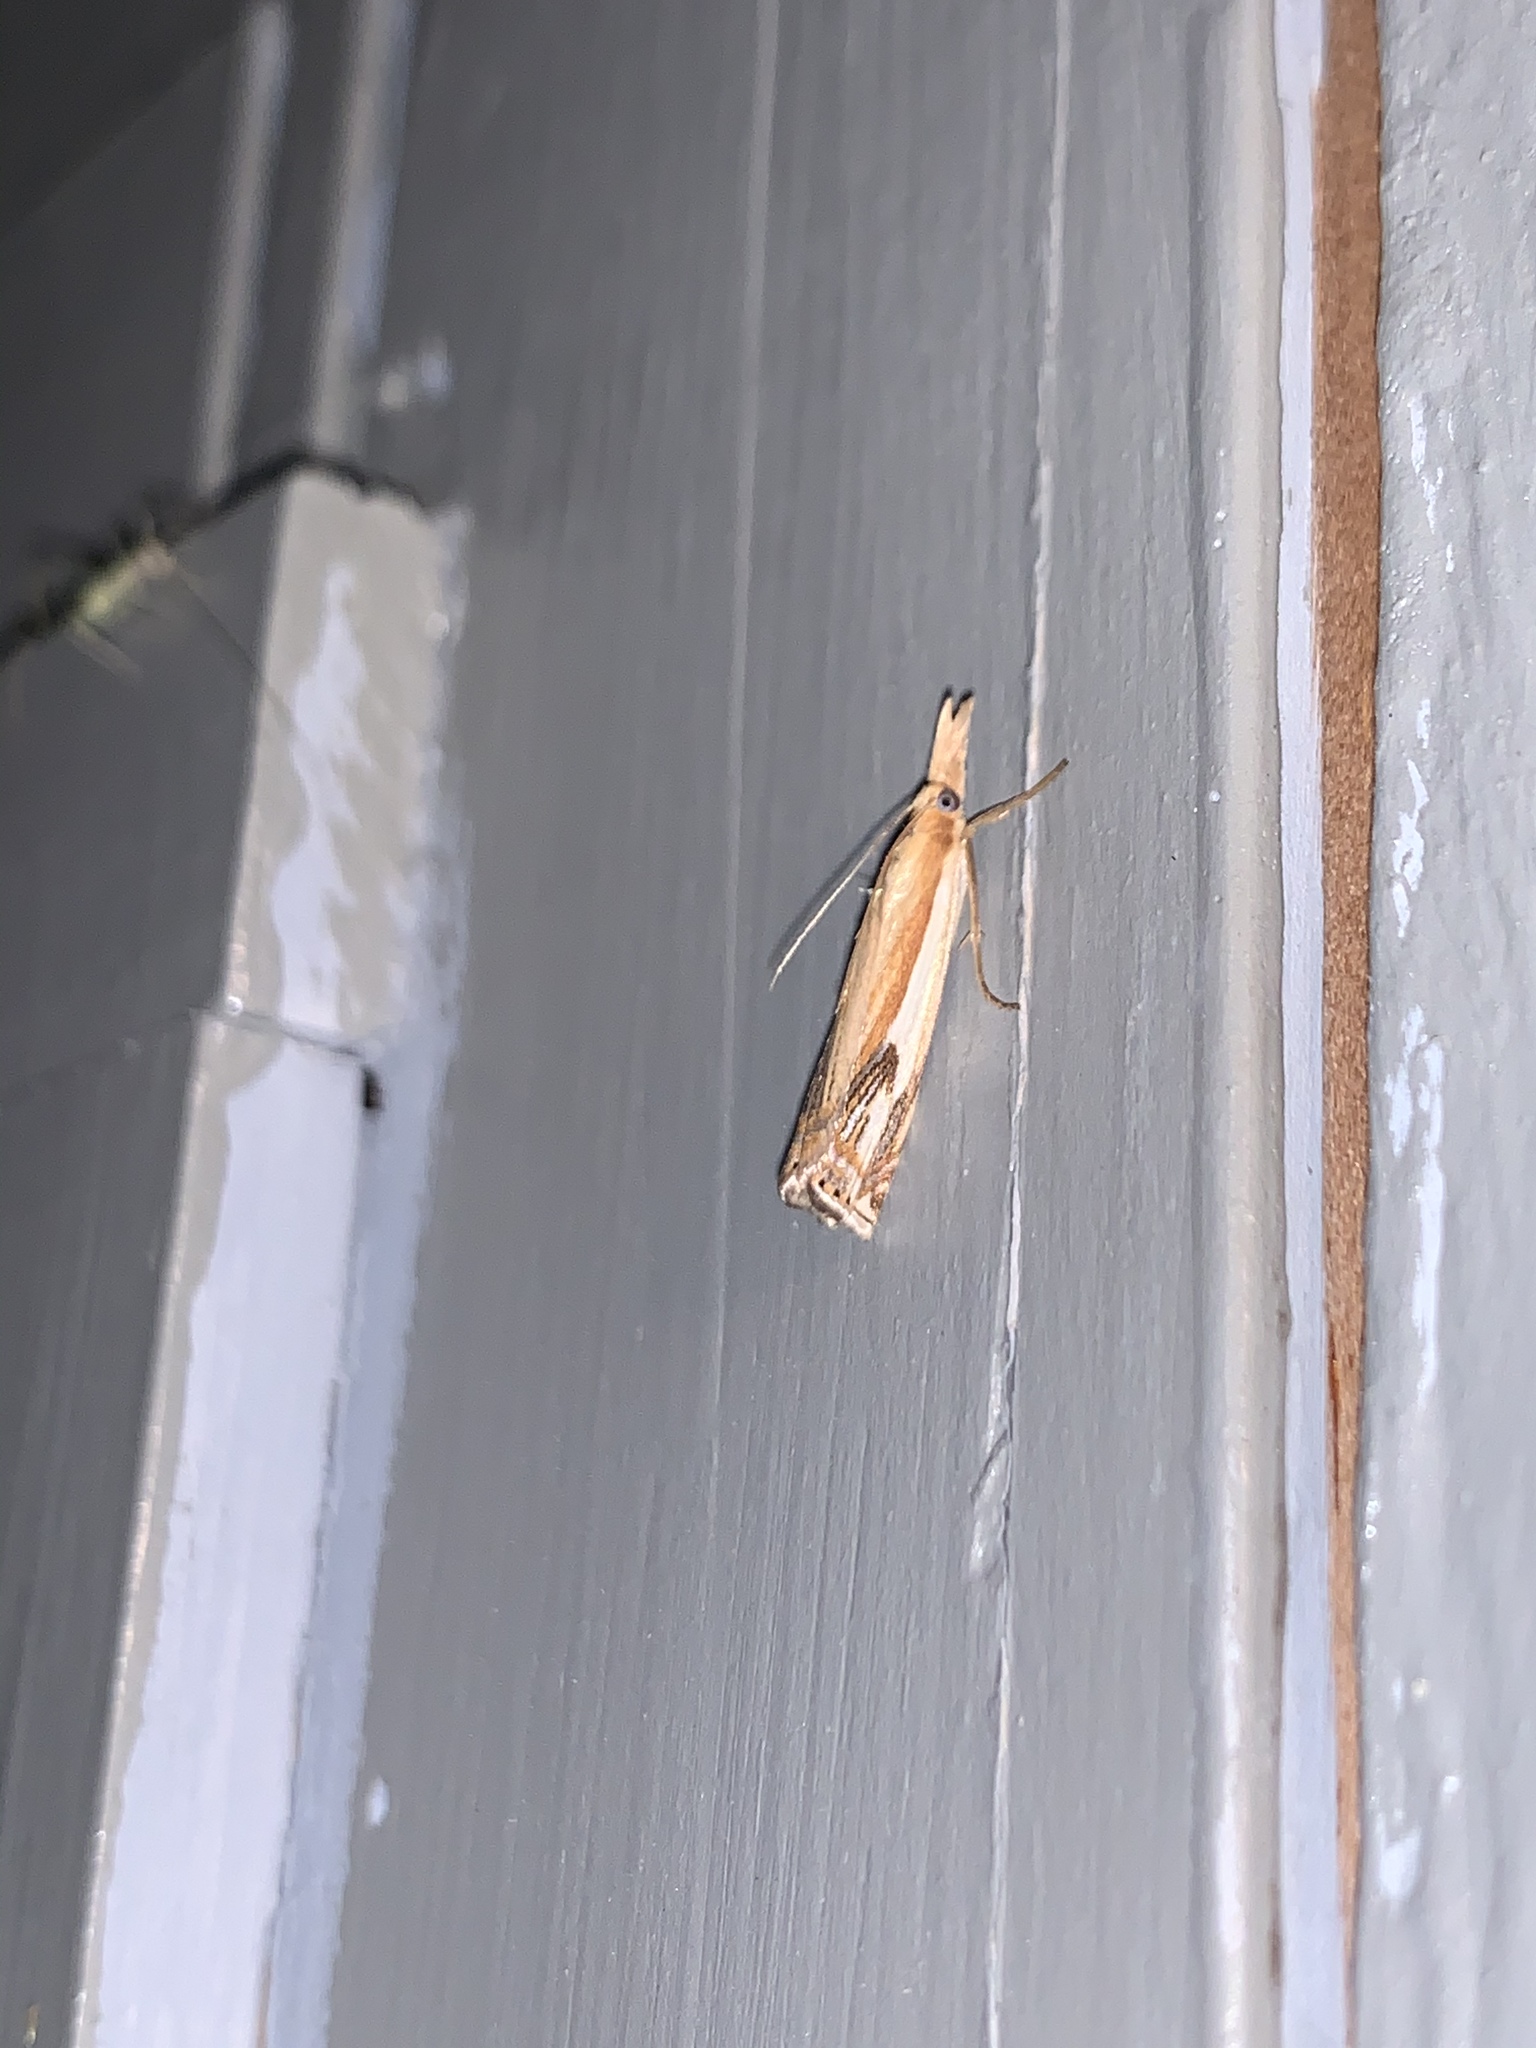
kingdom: Animalia
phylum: Arthropoda
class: Insecta
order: Lepidoptera
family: Crambidae
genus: Crambus
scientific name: Crambus agitatellus
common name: Double-banded grass-veneer
